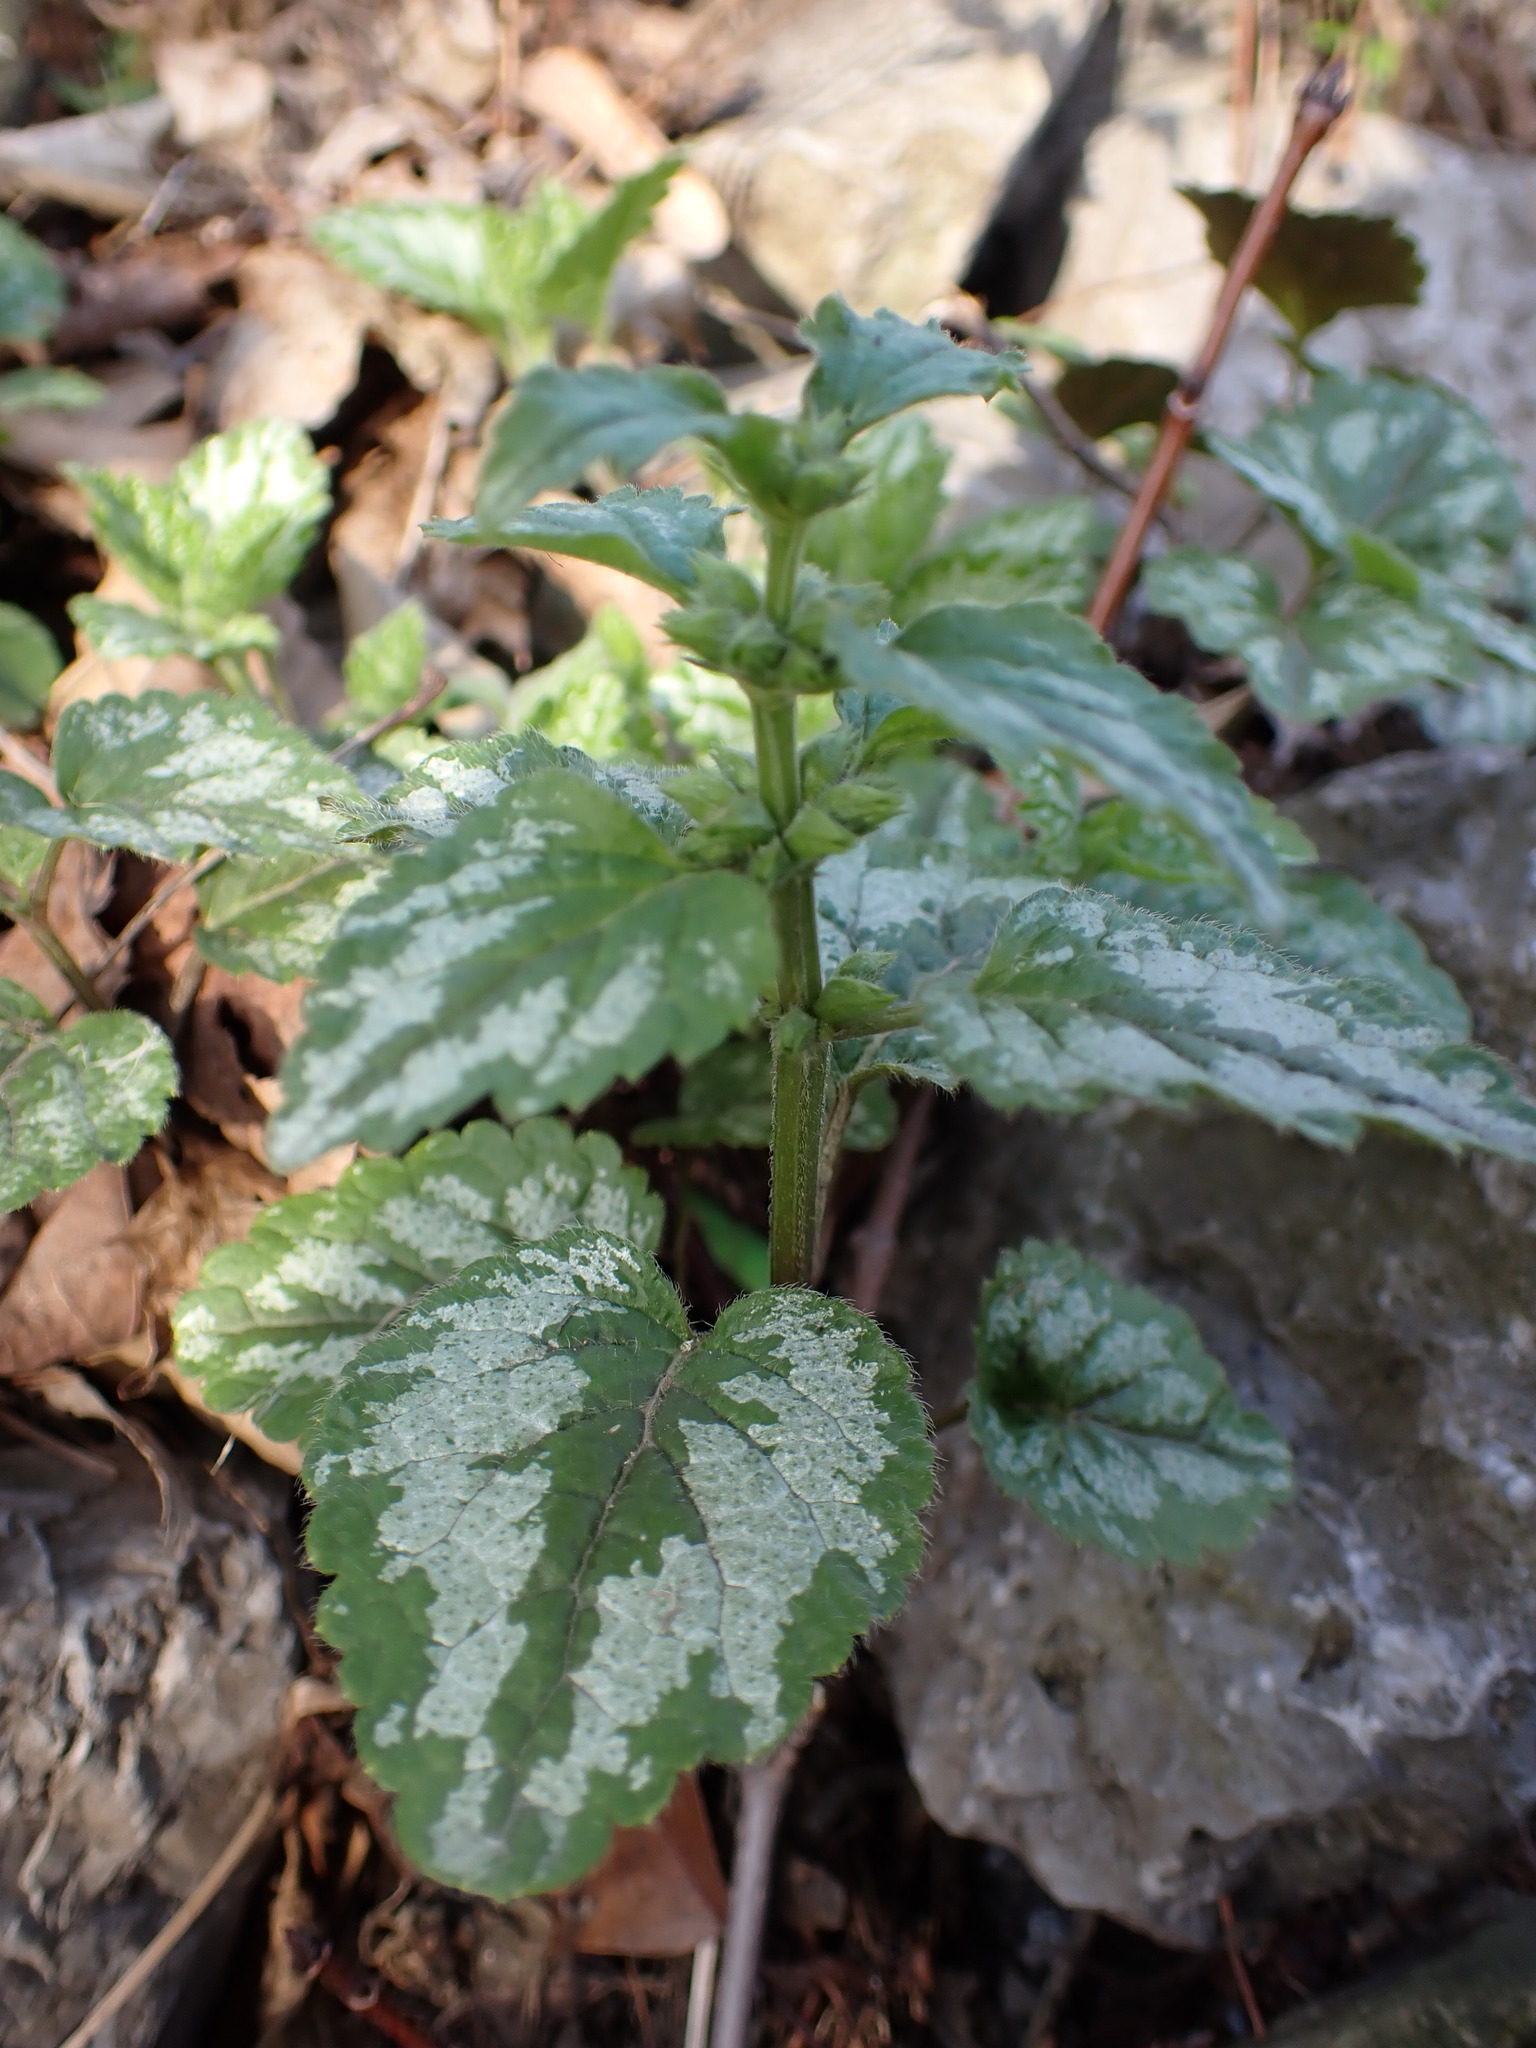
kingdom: Plantae
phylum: Tracheophyta
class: Magnoliopsida
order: Lamiales
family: Lamiaceae
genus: Lamium
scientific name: Lamium galeobdolon
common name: Yellow archangel
